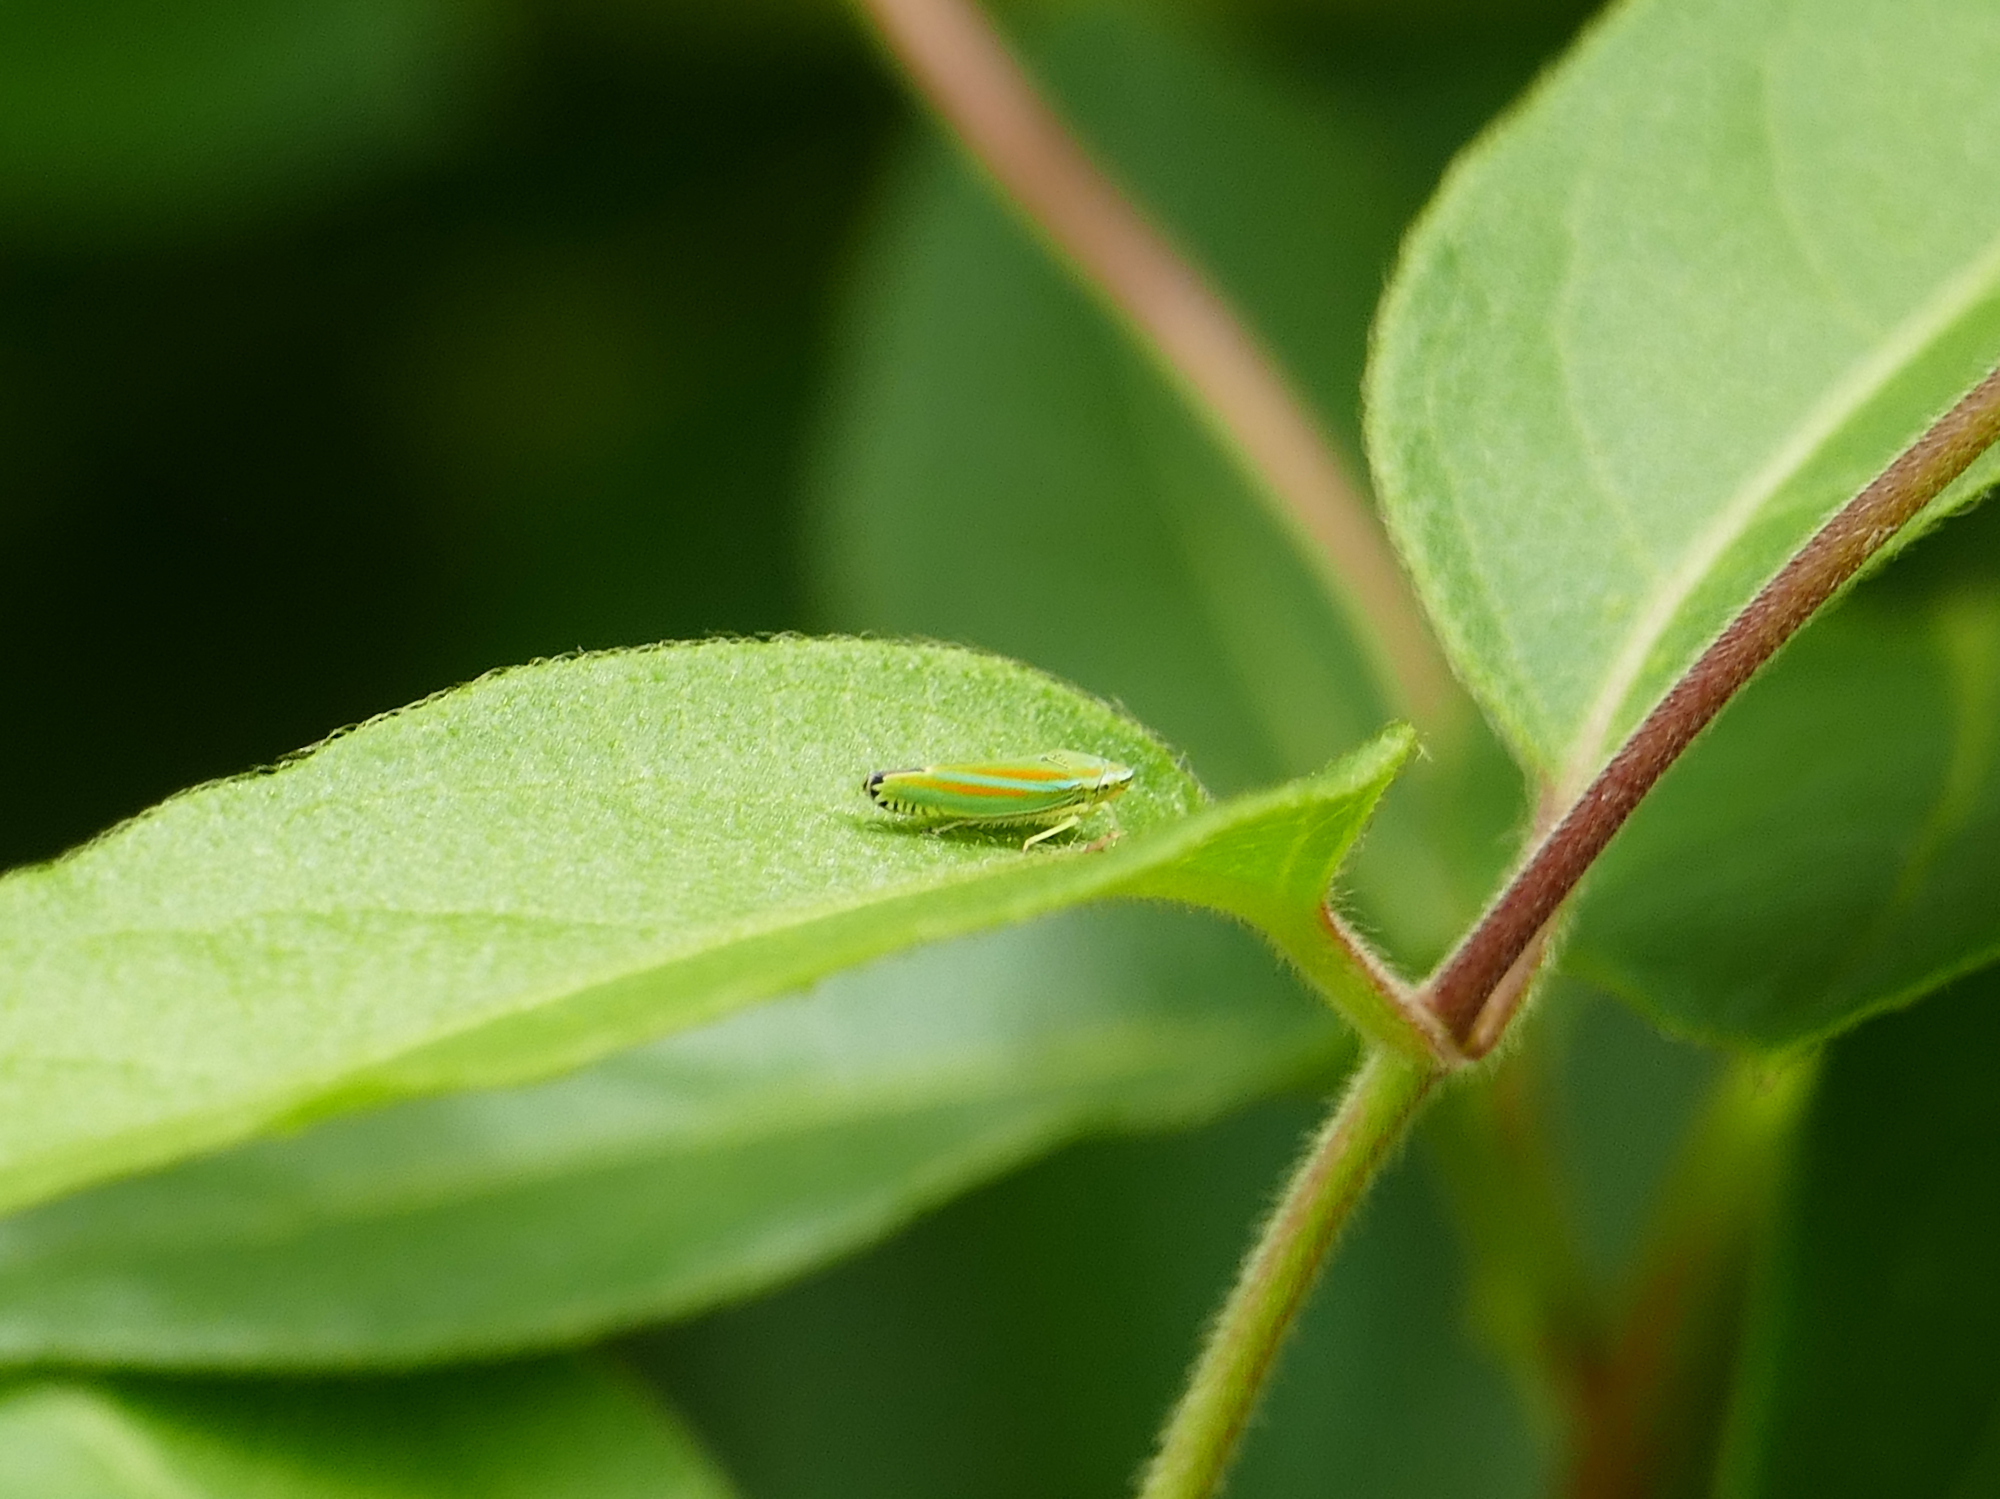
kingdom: Animalia
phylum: Arthropoda
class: Insecta
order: Hemiptera
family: Cicadellidae
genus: Graphocephala
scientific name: Graphocephala versuta
